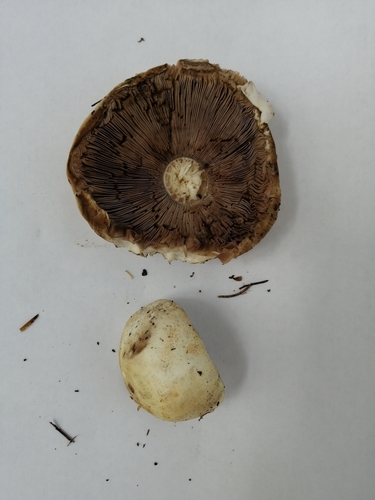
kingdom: Fungi
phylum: Basidiomycota
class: Agaricomycetes
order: Agaricales
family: Agaricaceae
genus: Agaricus
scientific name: Agaricus arvensis
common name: Horse mushroom
